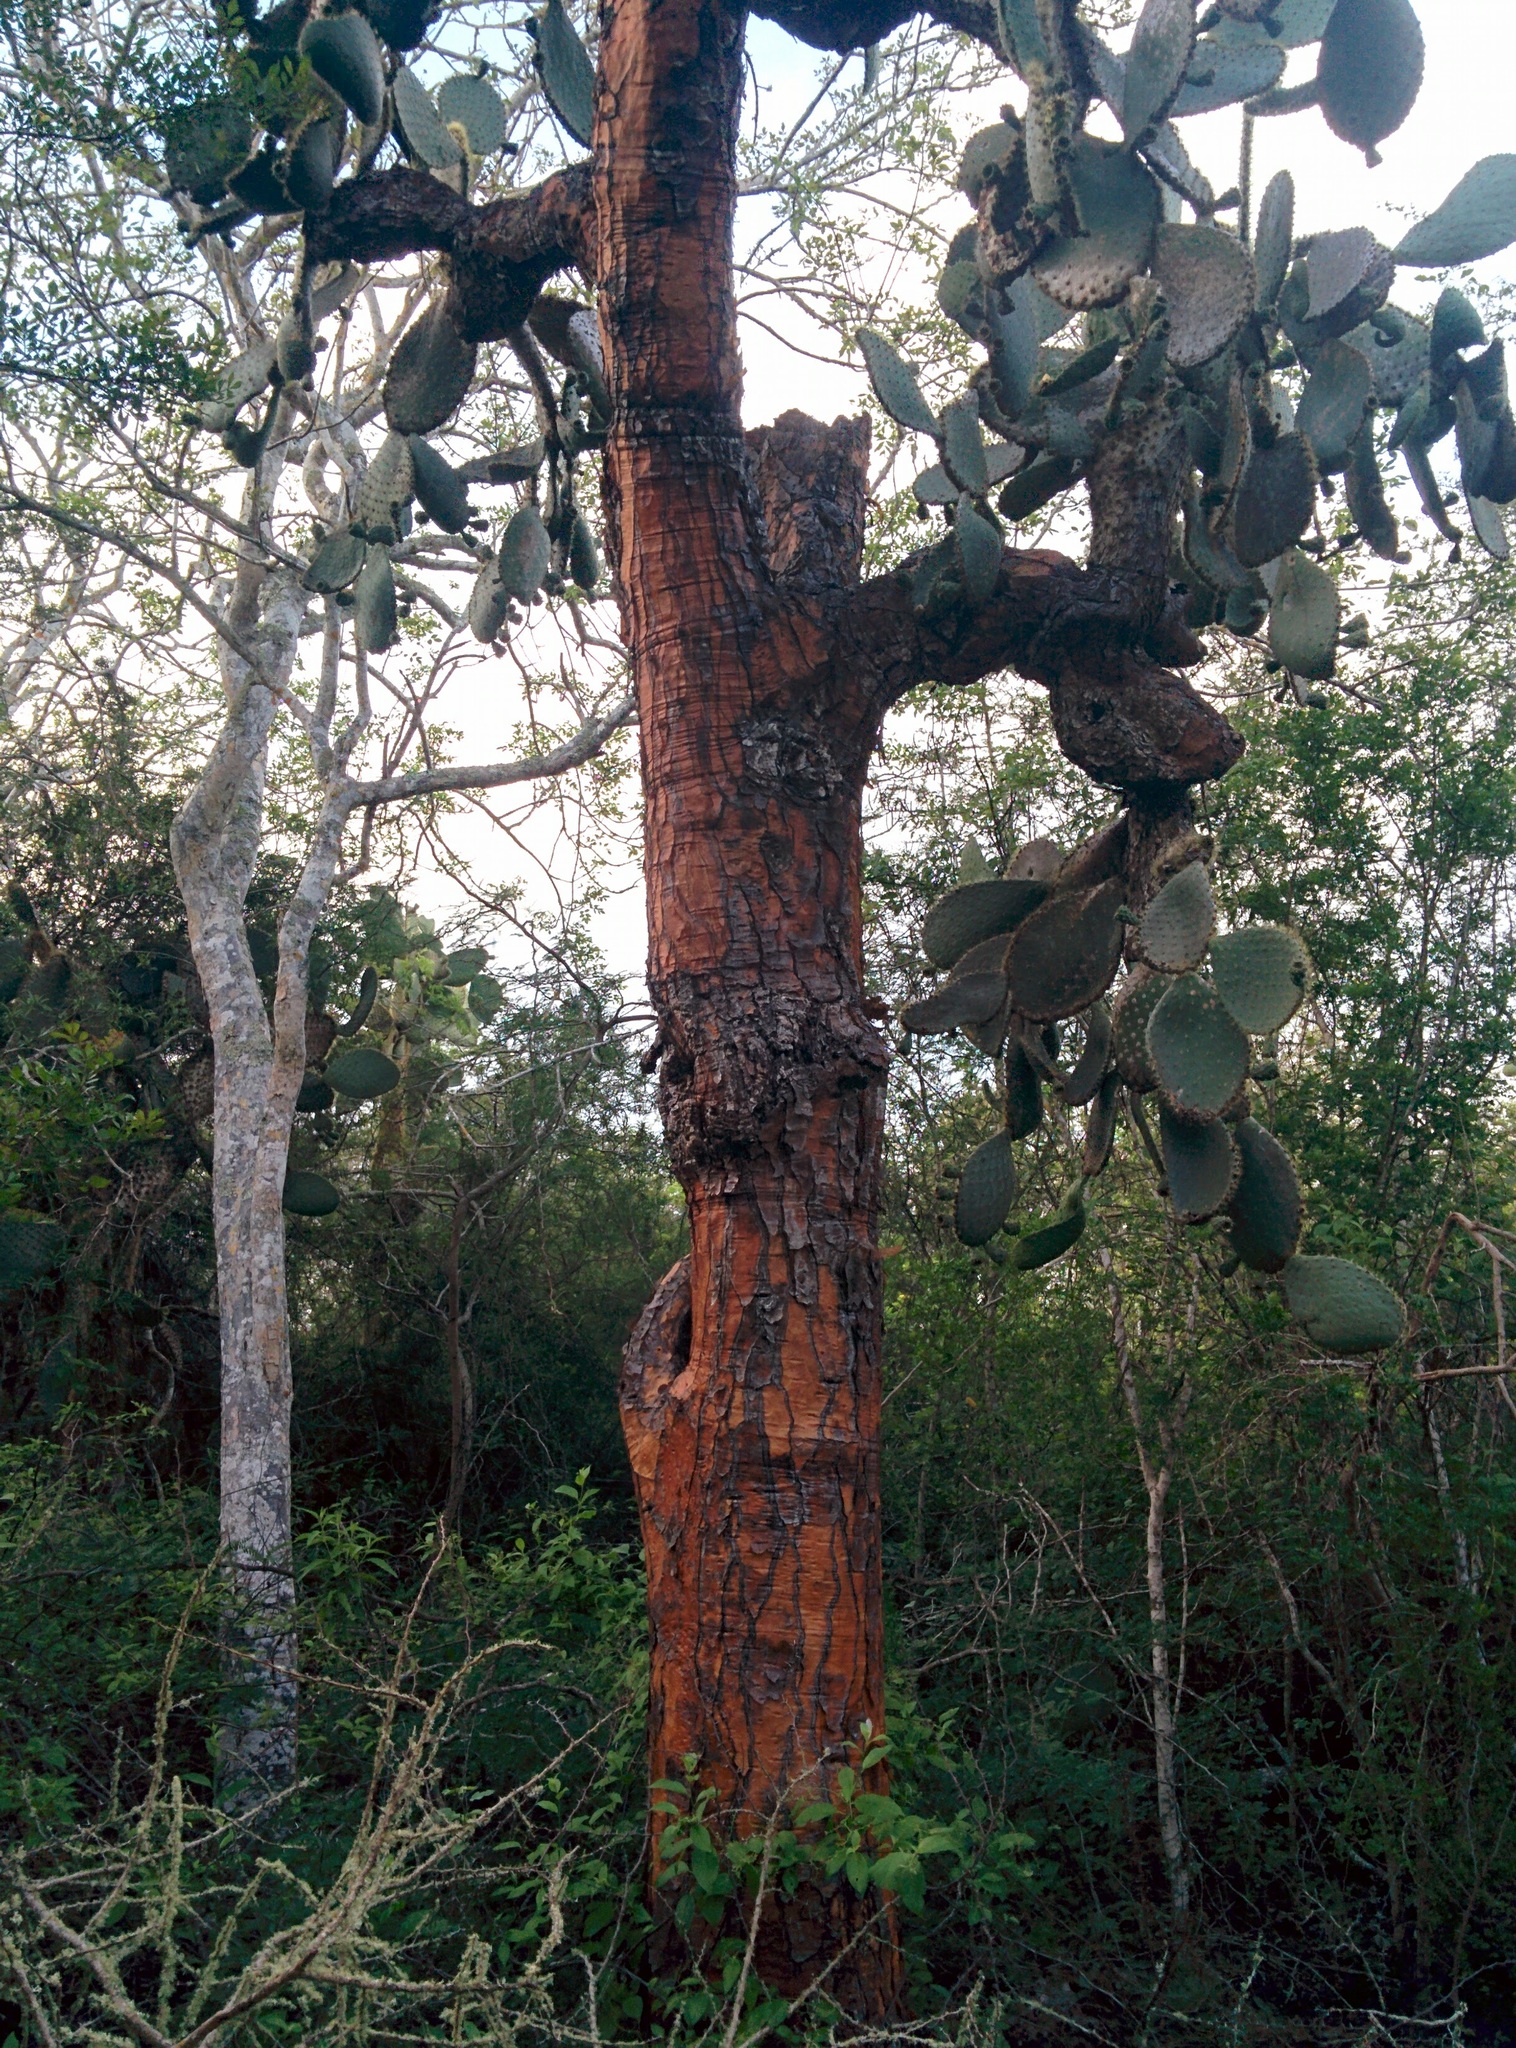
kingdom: Plantae
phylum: Tracheophyta
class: Magnoliopsida
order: Caryophyllales
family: Cactaceae
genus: Opuntia
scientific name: Opuntia galapageia
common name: Galápagos prickly pear
